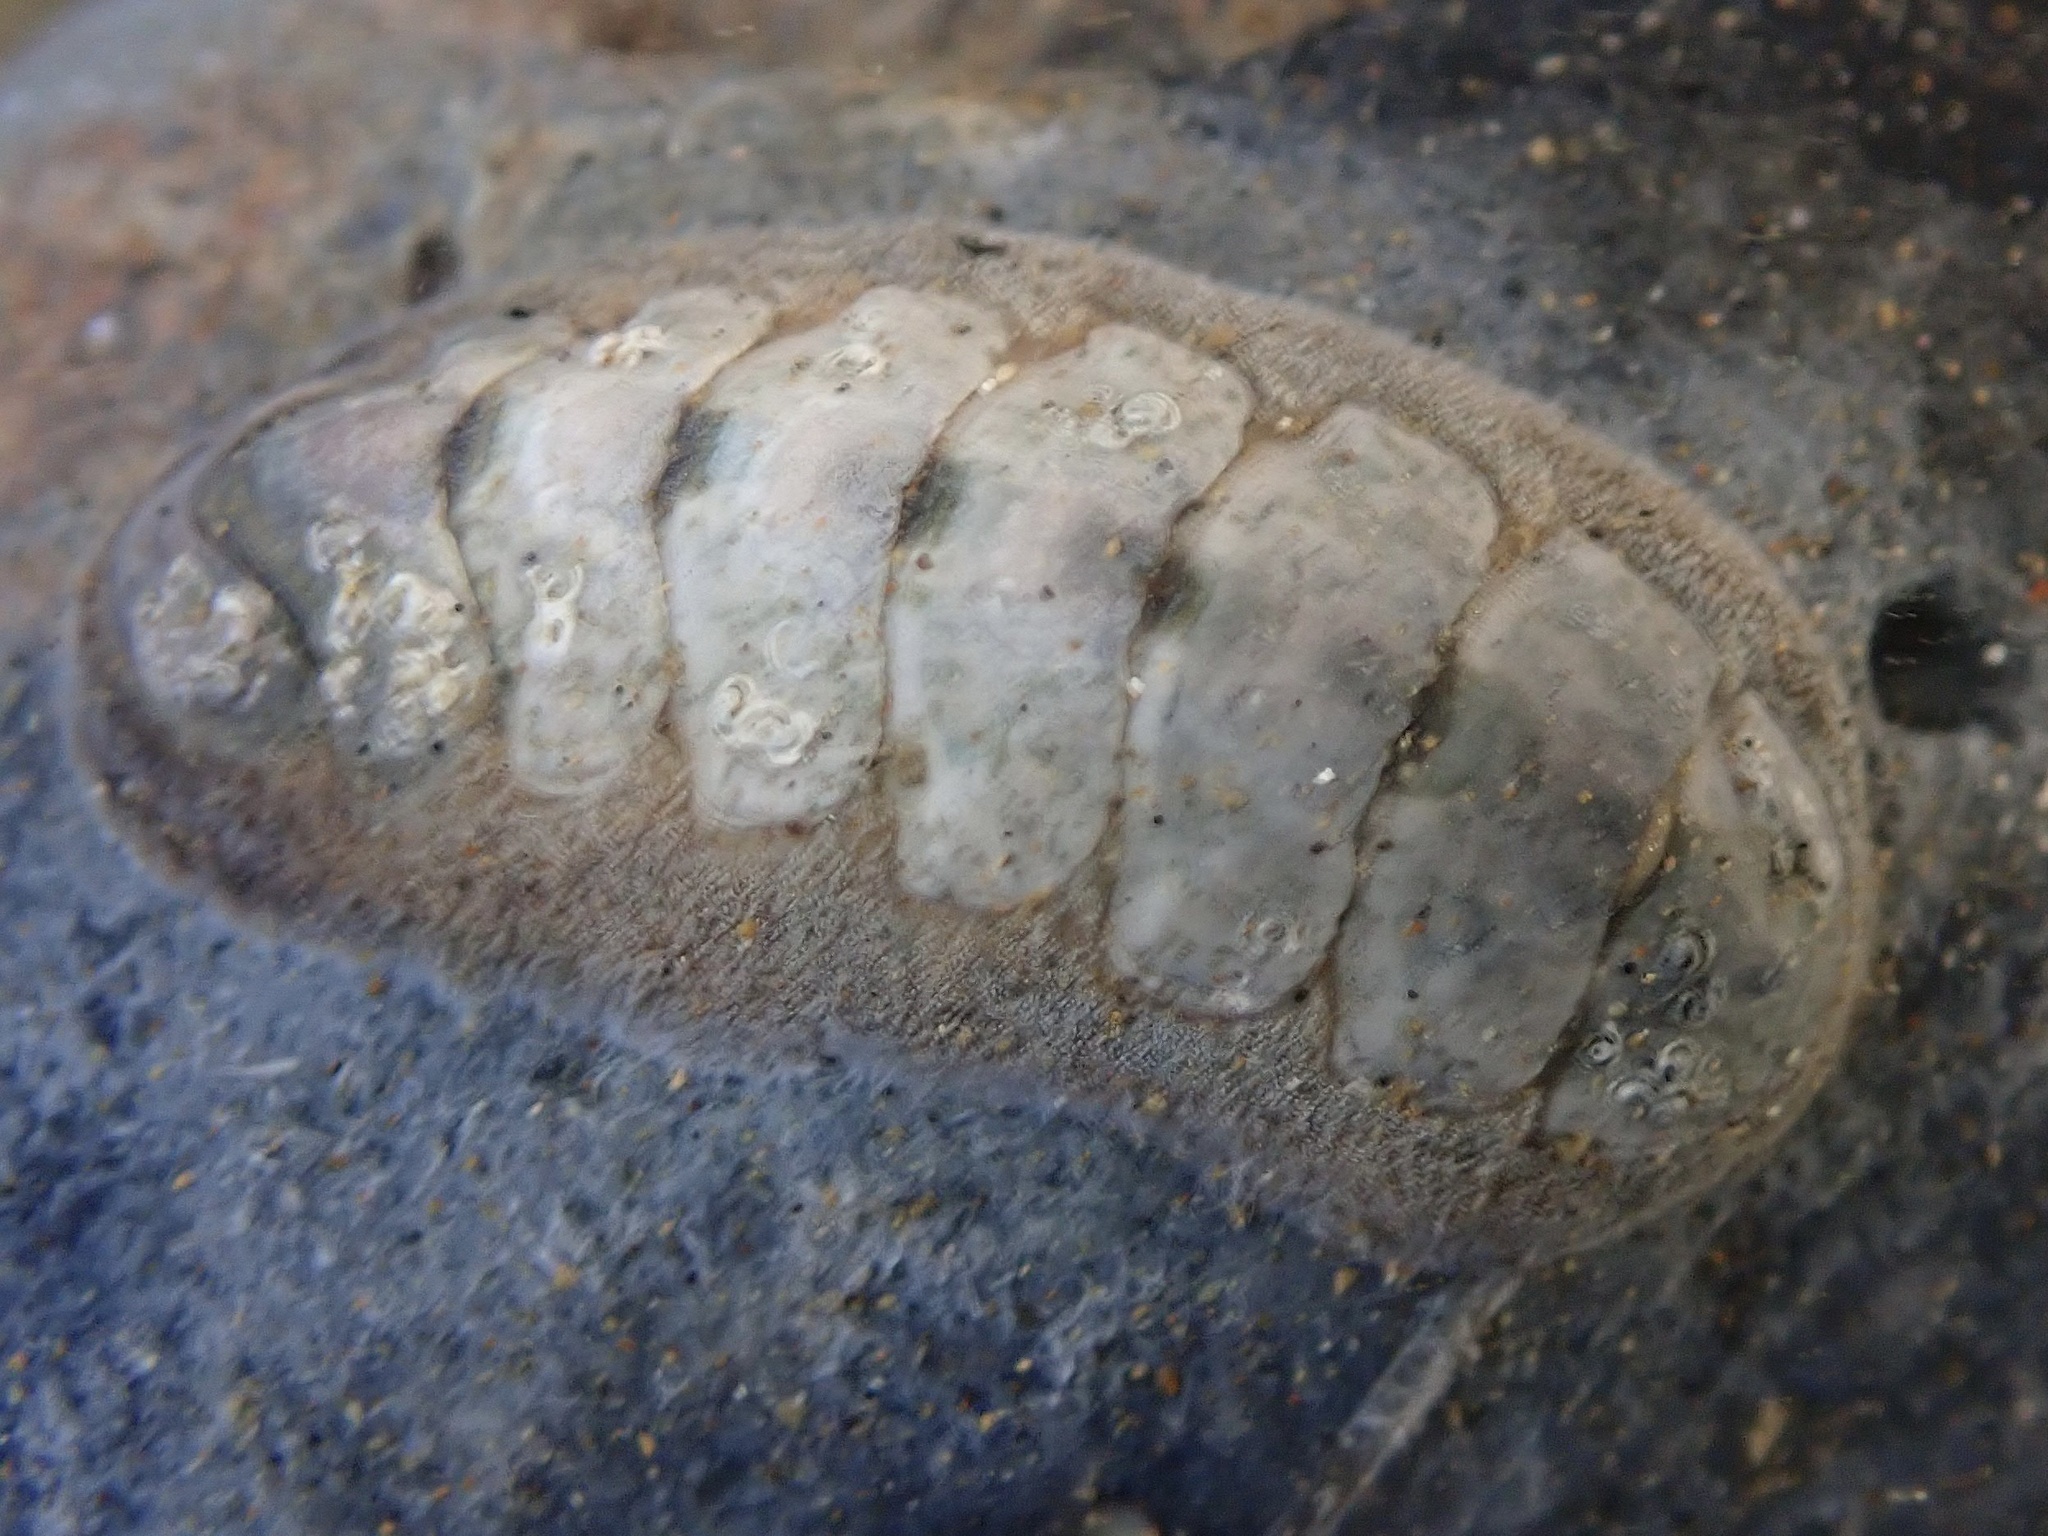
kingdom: Animalia
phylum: Mollusca
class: Polyplacophora
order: Chitonida
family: Ischnochitonidae
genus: Stenoplax
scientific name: Stenoplax conspicua
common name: Conspicuous chiton
